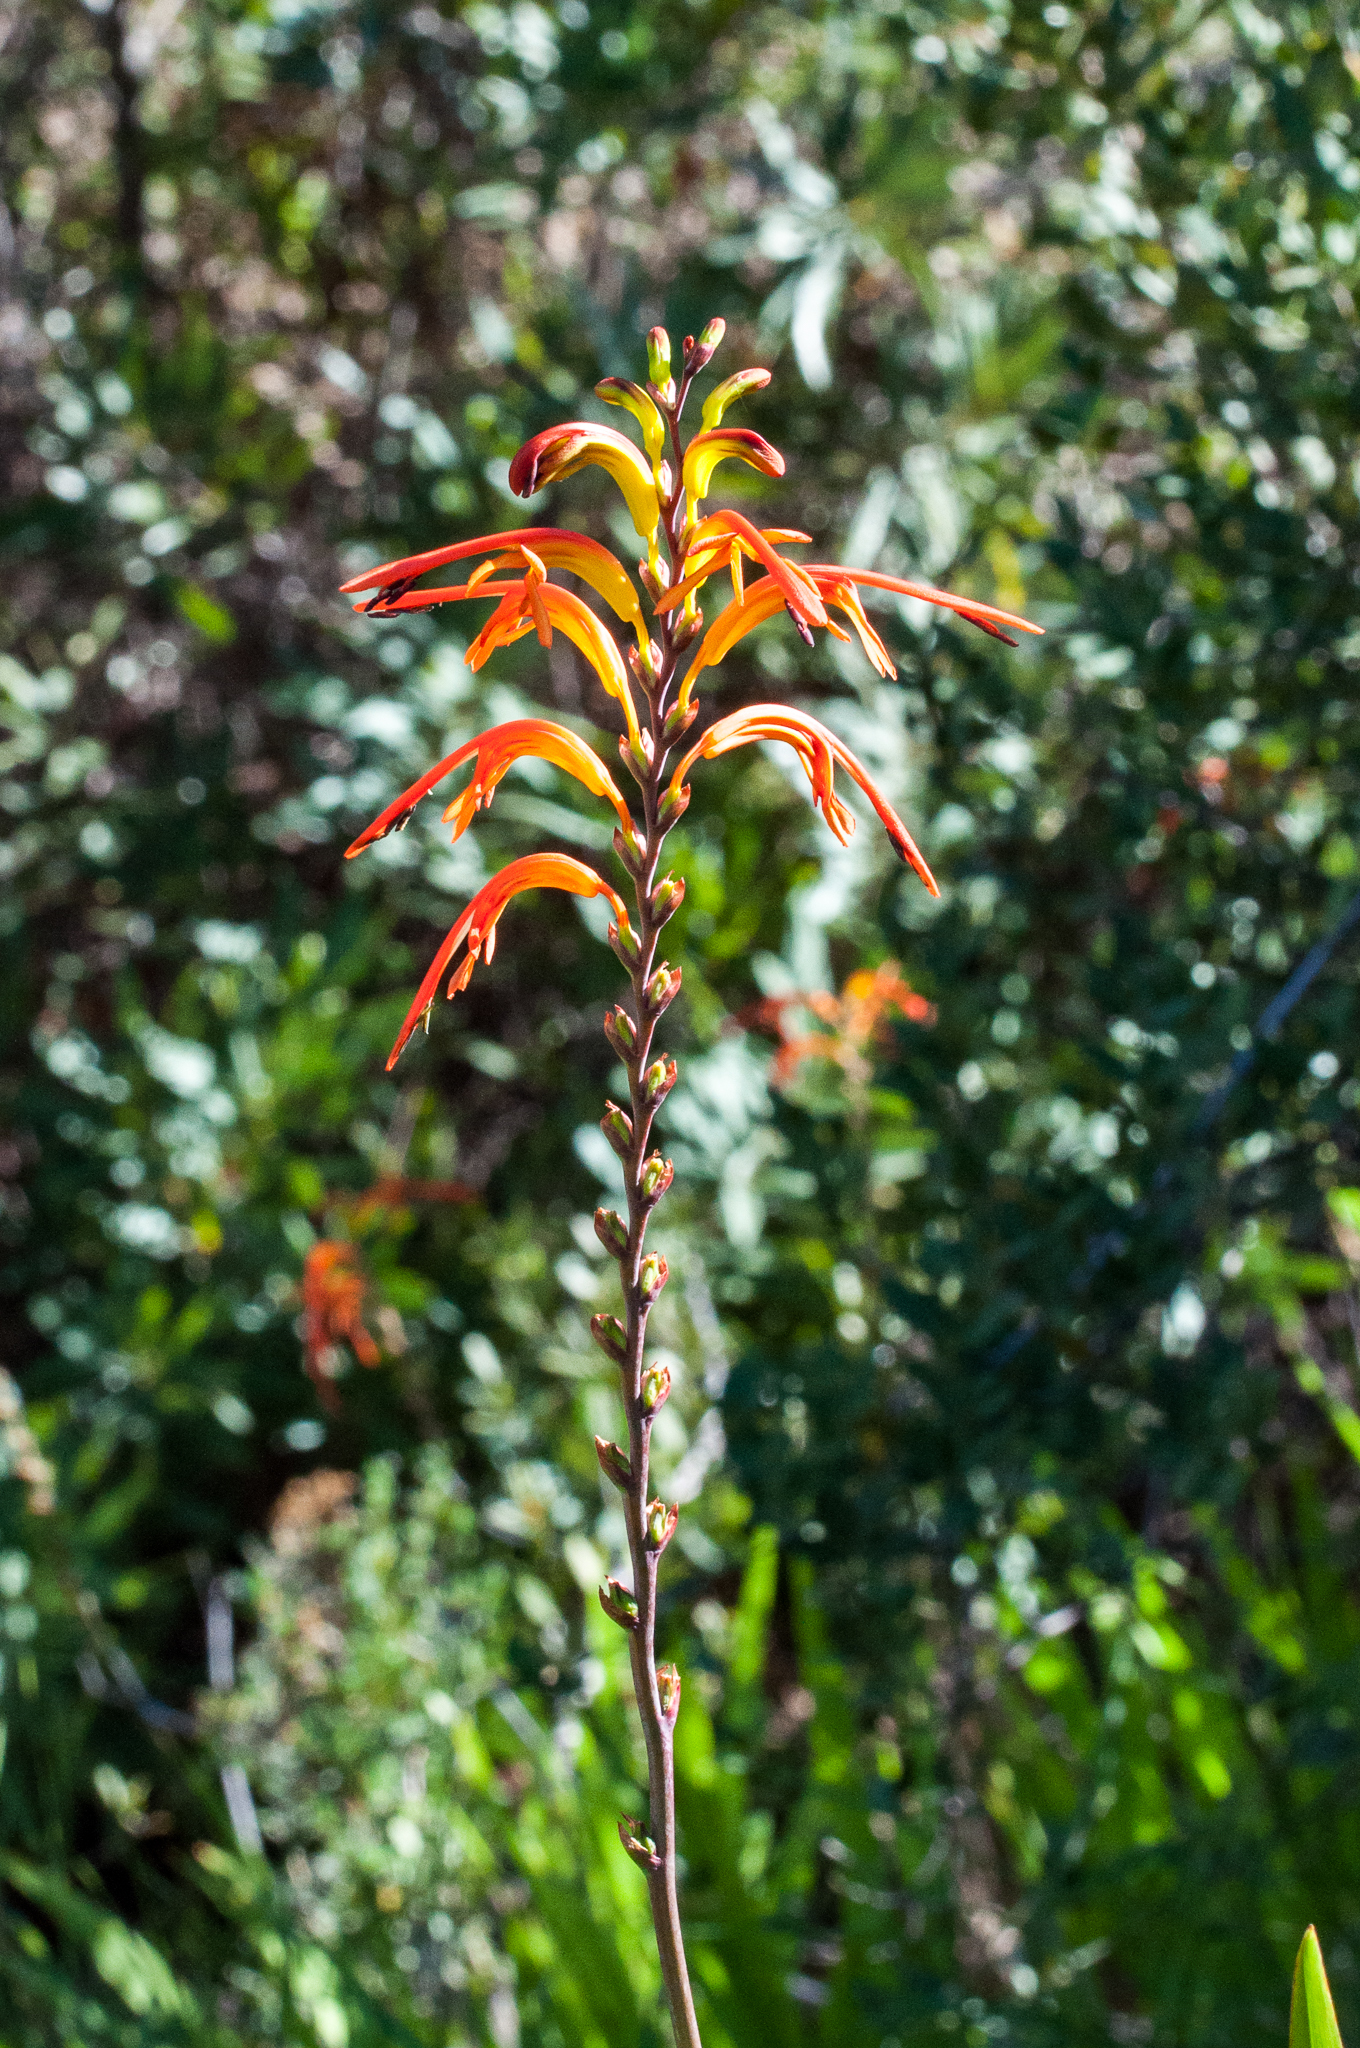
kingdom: Plantae
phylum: Tracheophyta
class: Liliopsida
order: Asparagales
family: Iridaceae
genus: Chasmanthe
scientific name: Chasmanthe floribunda
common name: African cornflag
